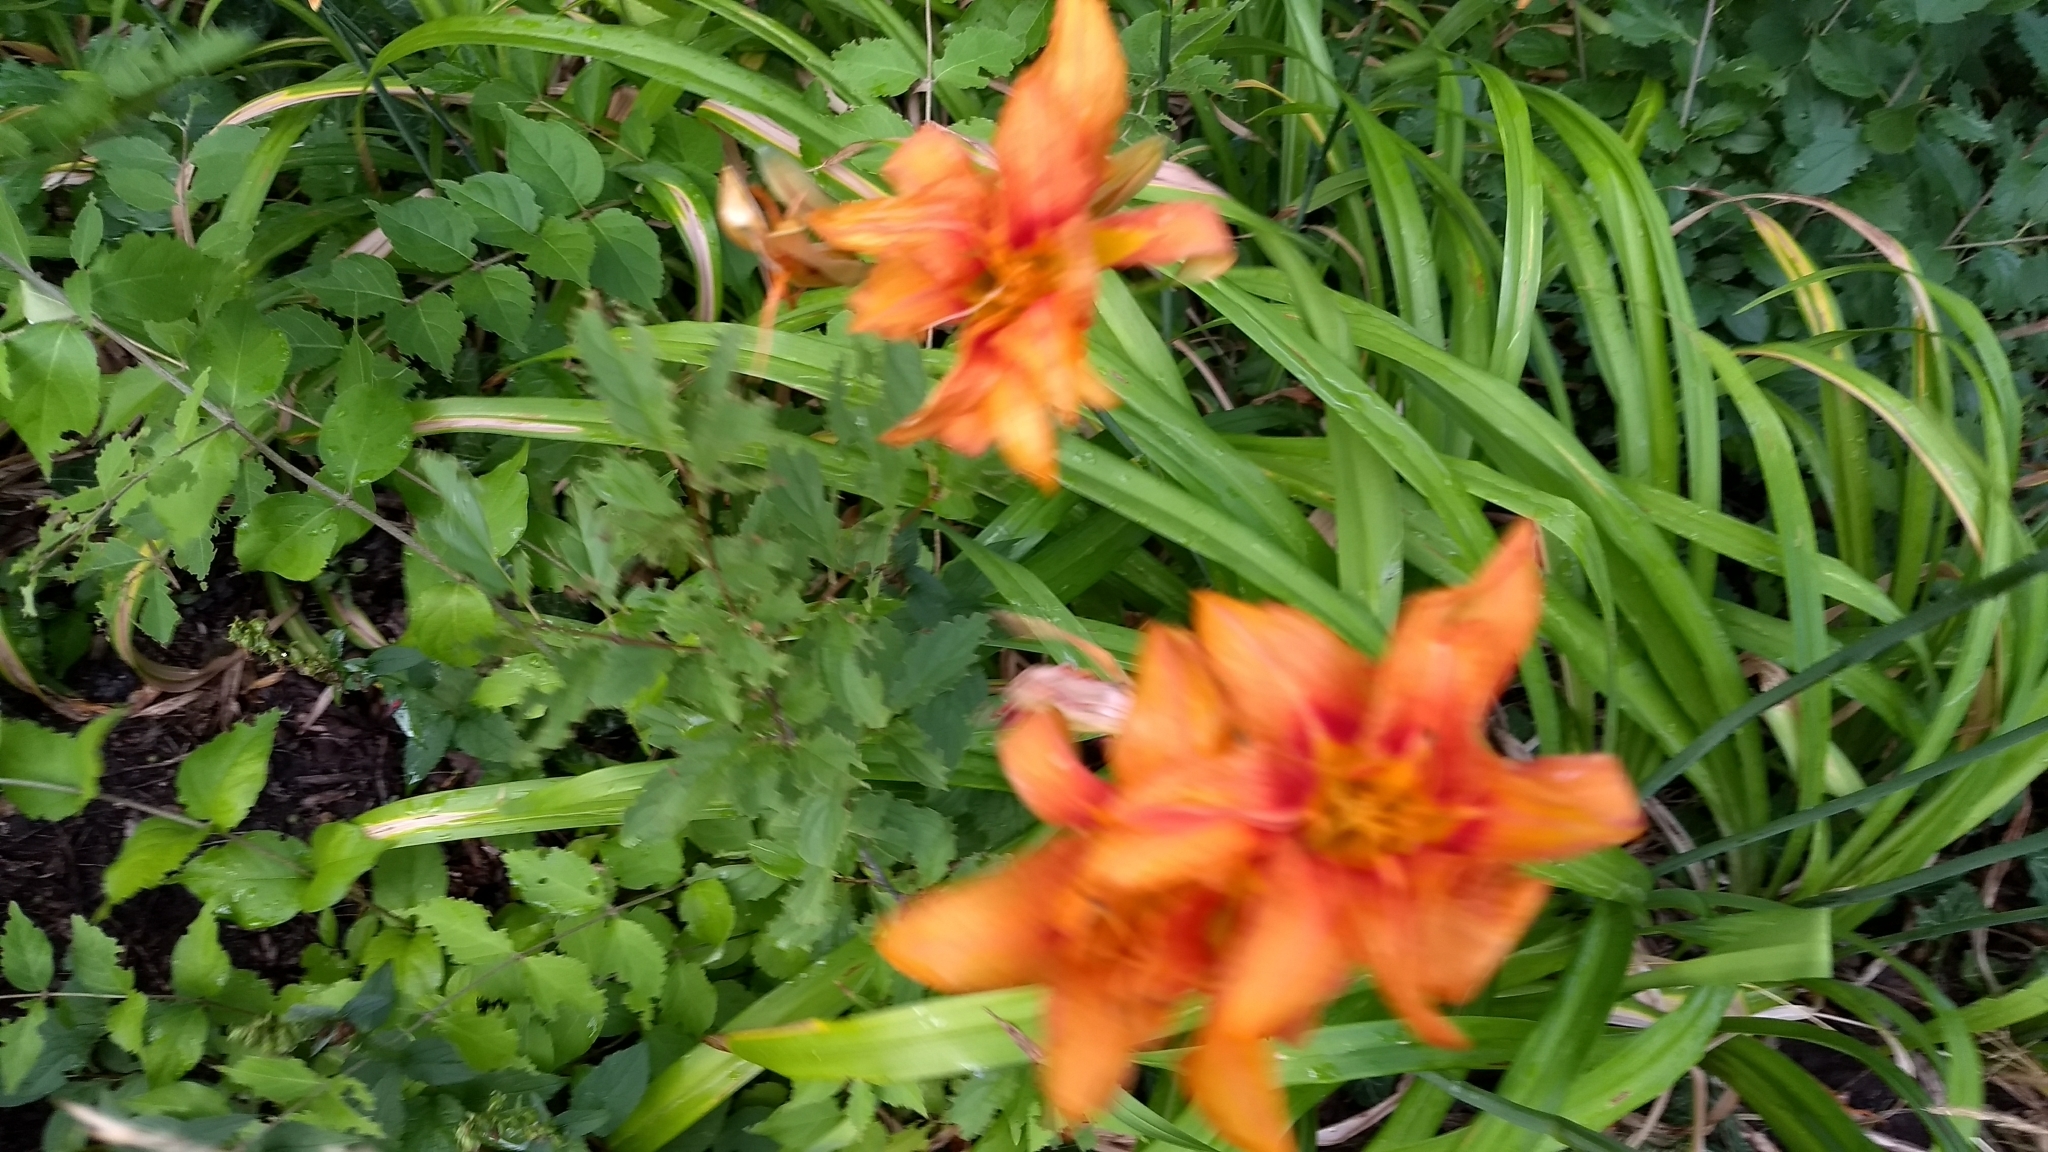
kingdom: Plantae
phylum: Tracheophyta
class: Liliopsida
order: Asparagales
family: Asphodelaceae
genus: Hemerocallis
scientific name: Hemerocallis fulva
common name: Orange day-lily
